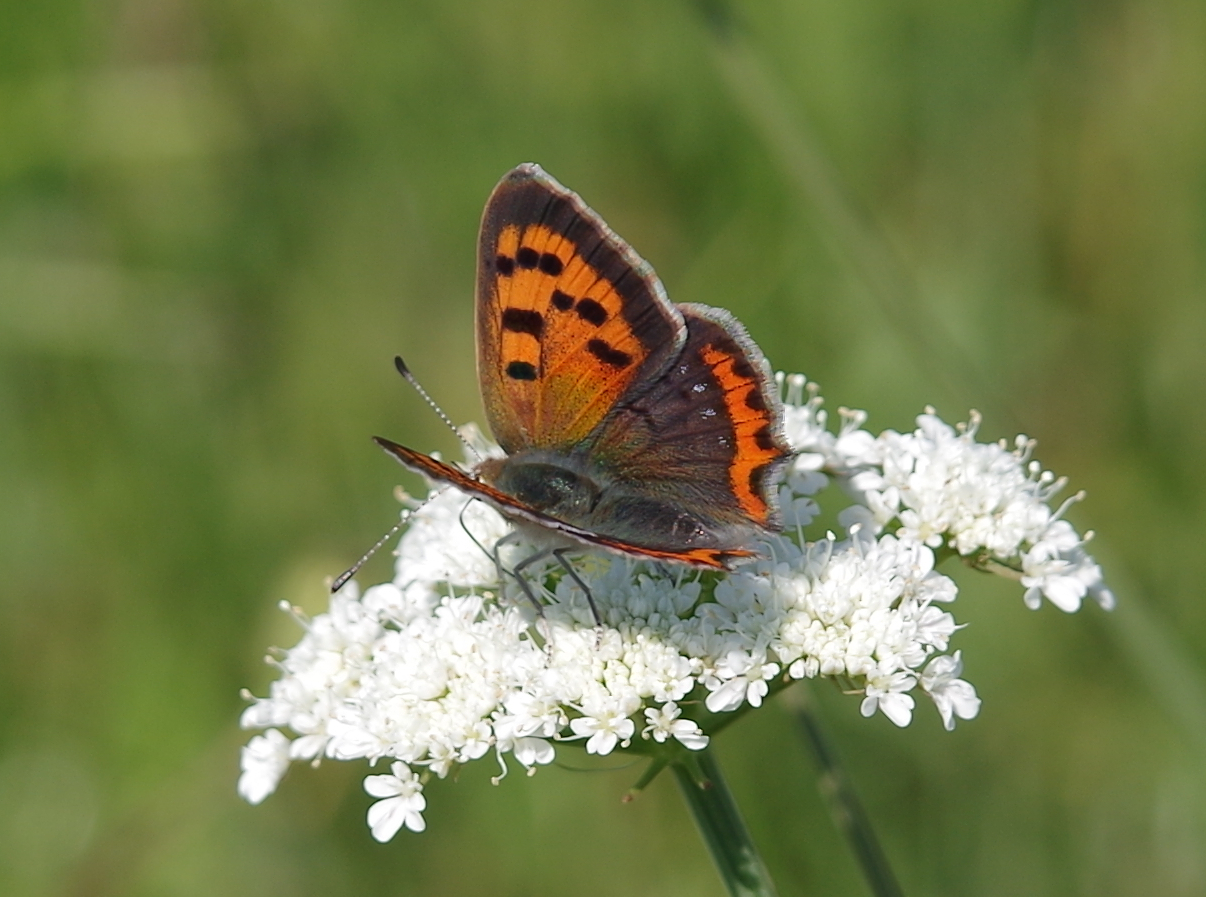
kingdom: Animalia
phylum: Arthropoda
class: Insecta
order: Lepidoptera
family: Lycaenidae
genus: Lycaena
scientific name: Lycaena phlaeas
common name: Small copper
